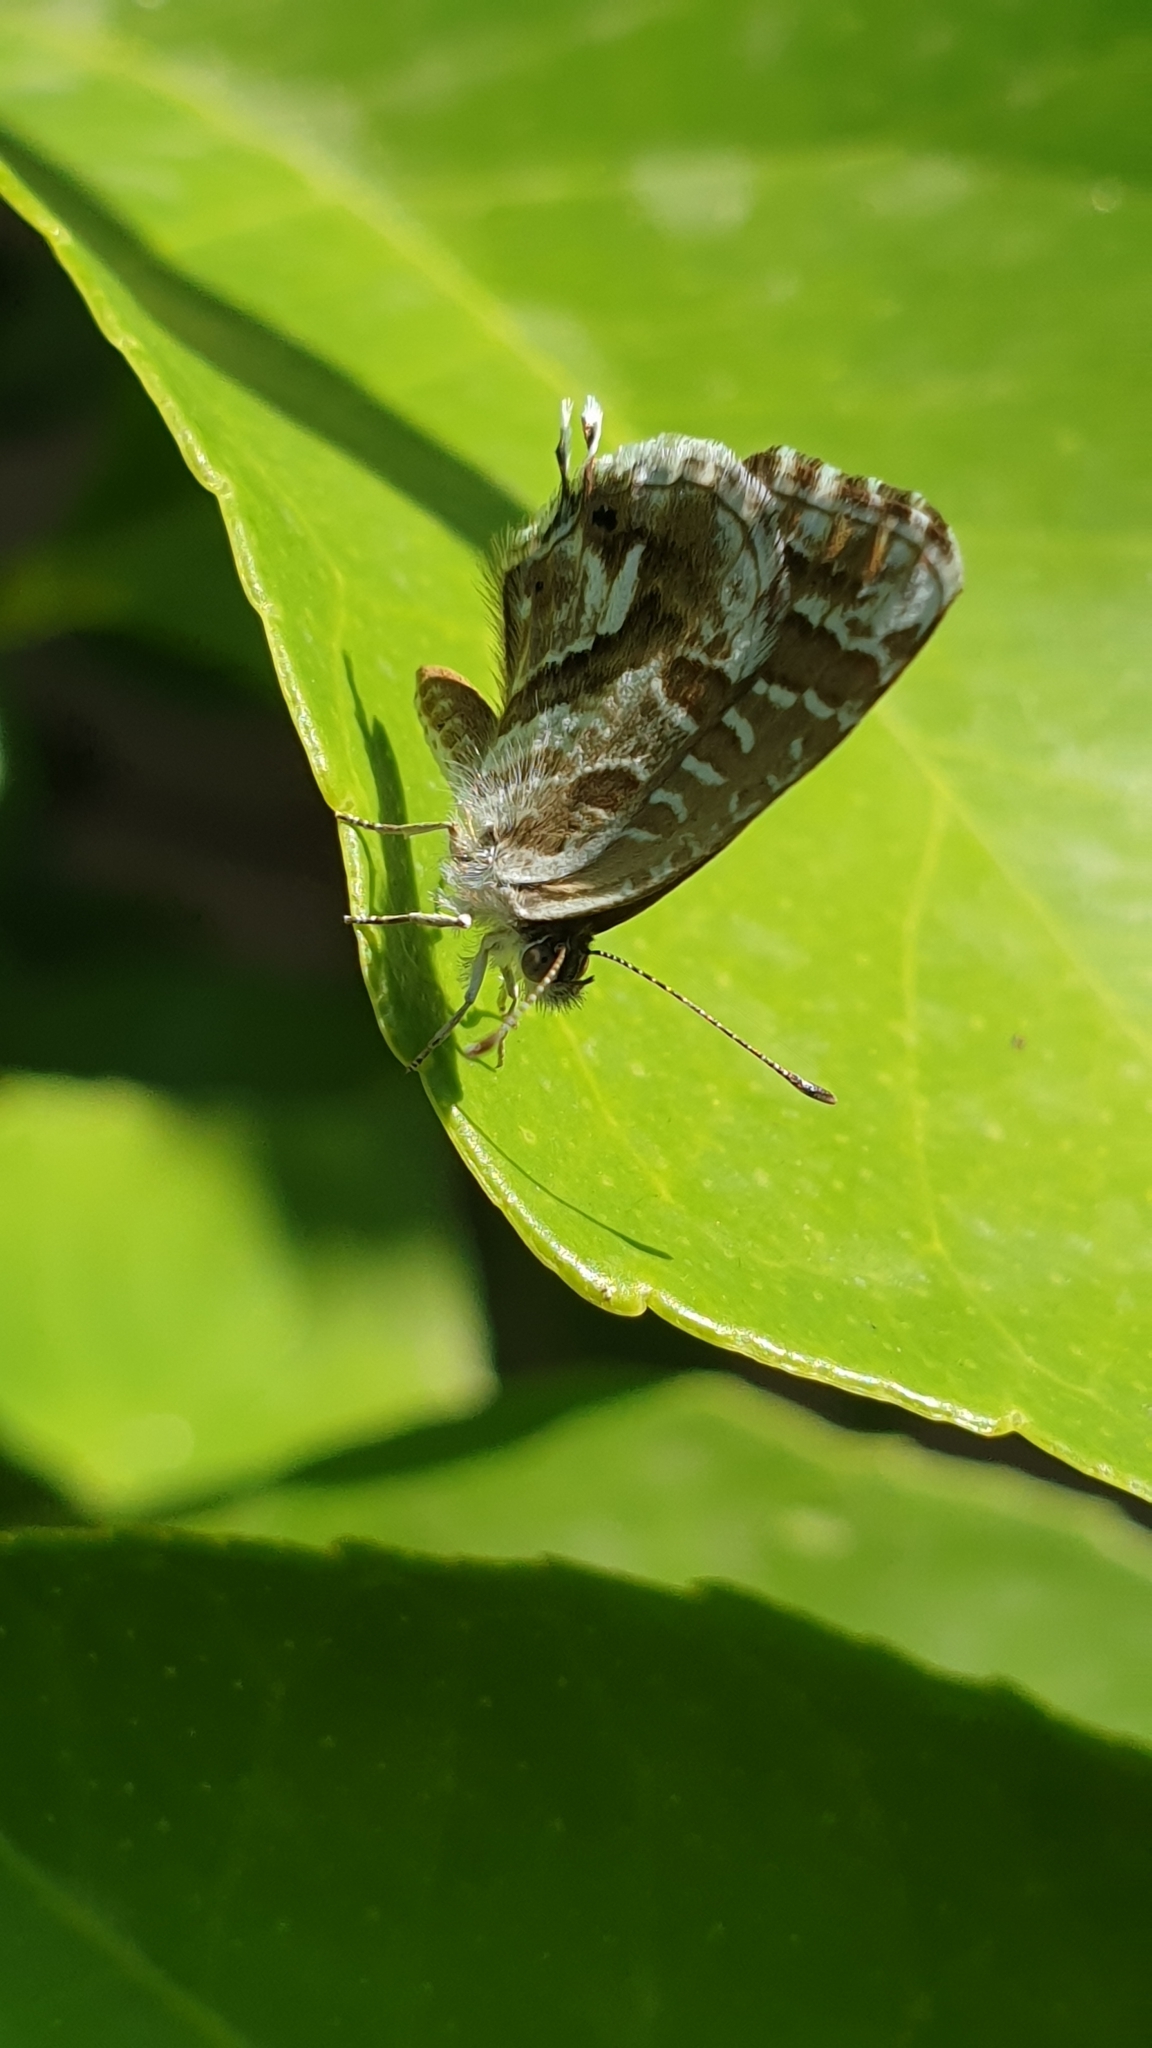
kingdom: Animalia
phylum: Arthropoda
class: Insecta
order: Lepidoptera
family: Lycaenidae
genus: Cacyreus
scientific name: Cacyreus marshalli
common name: Geranium bronze
